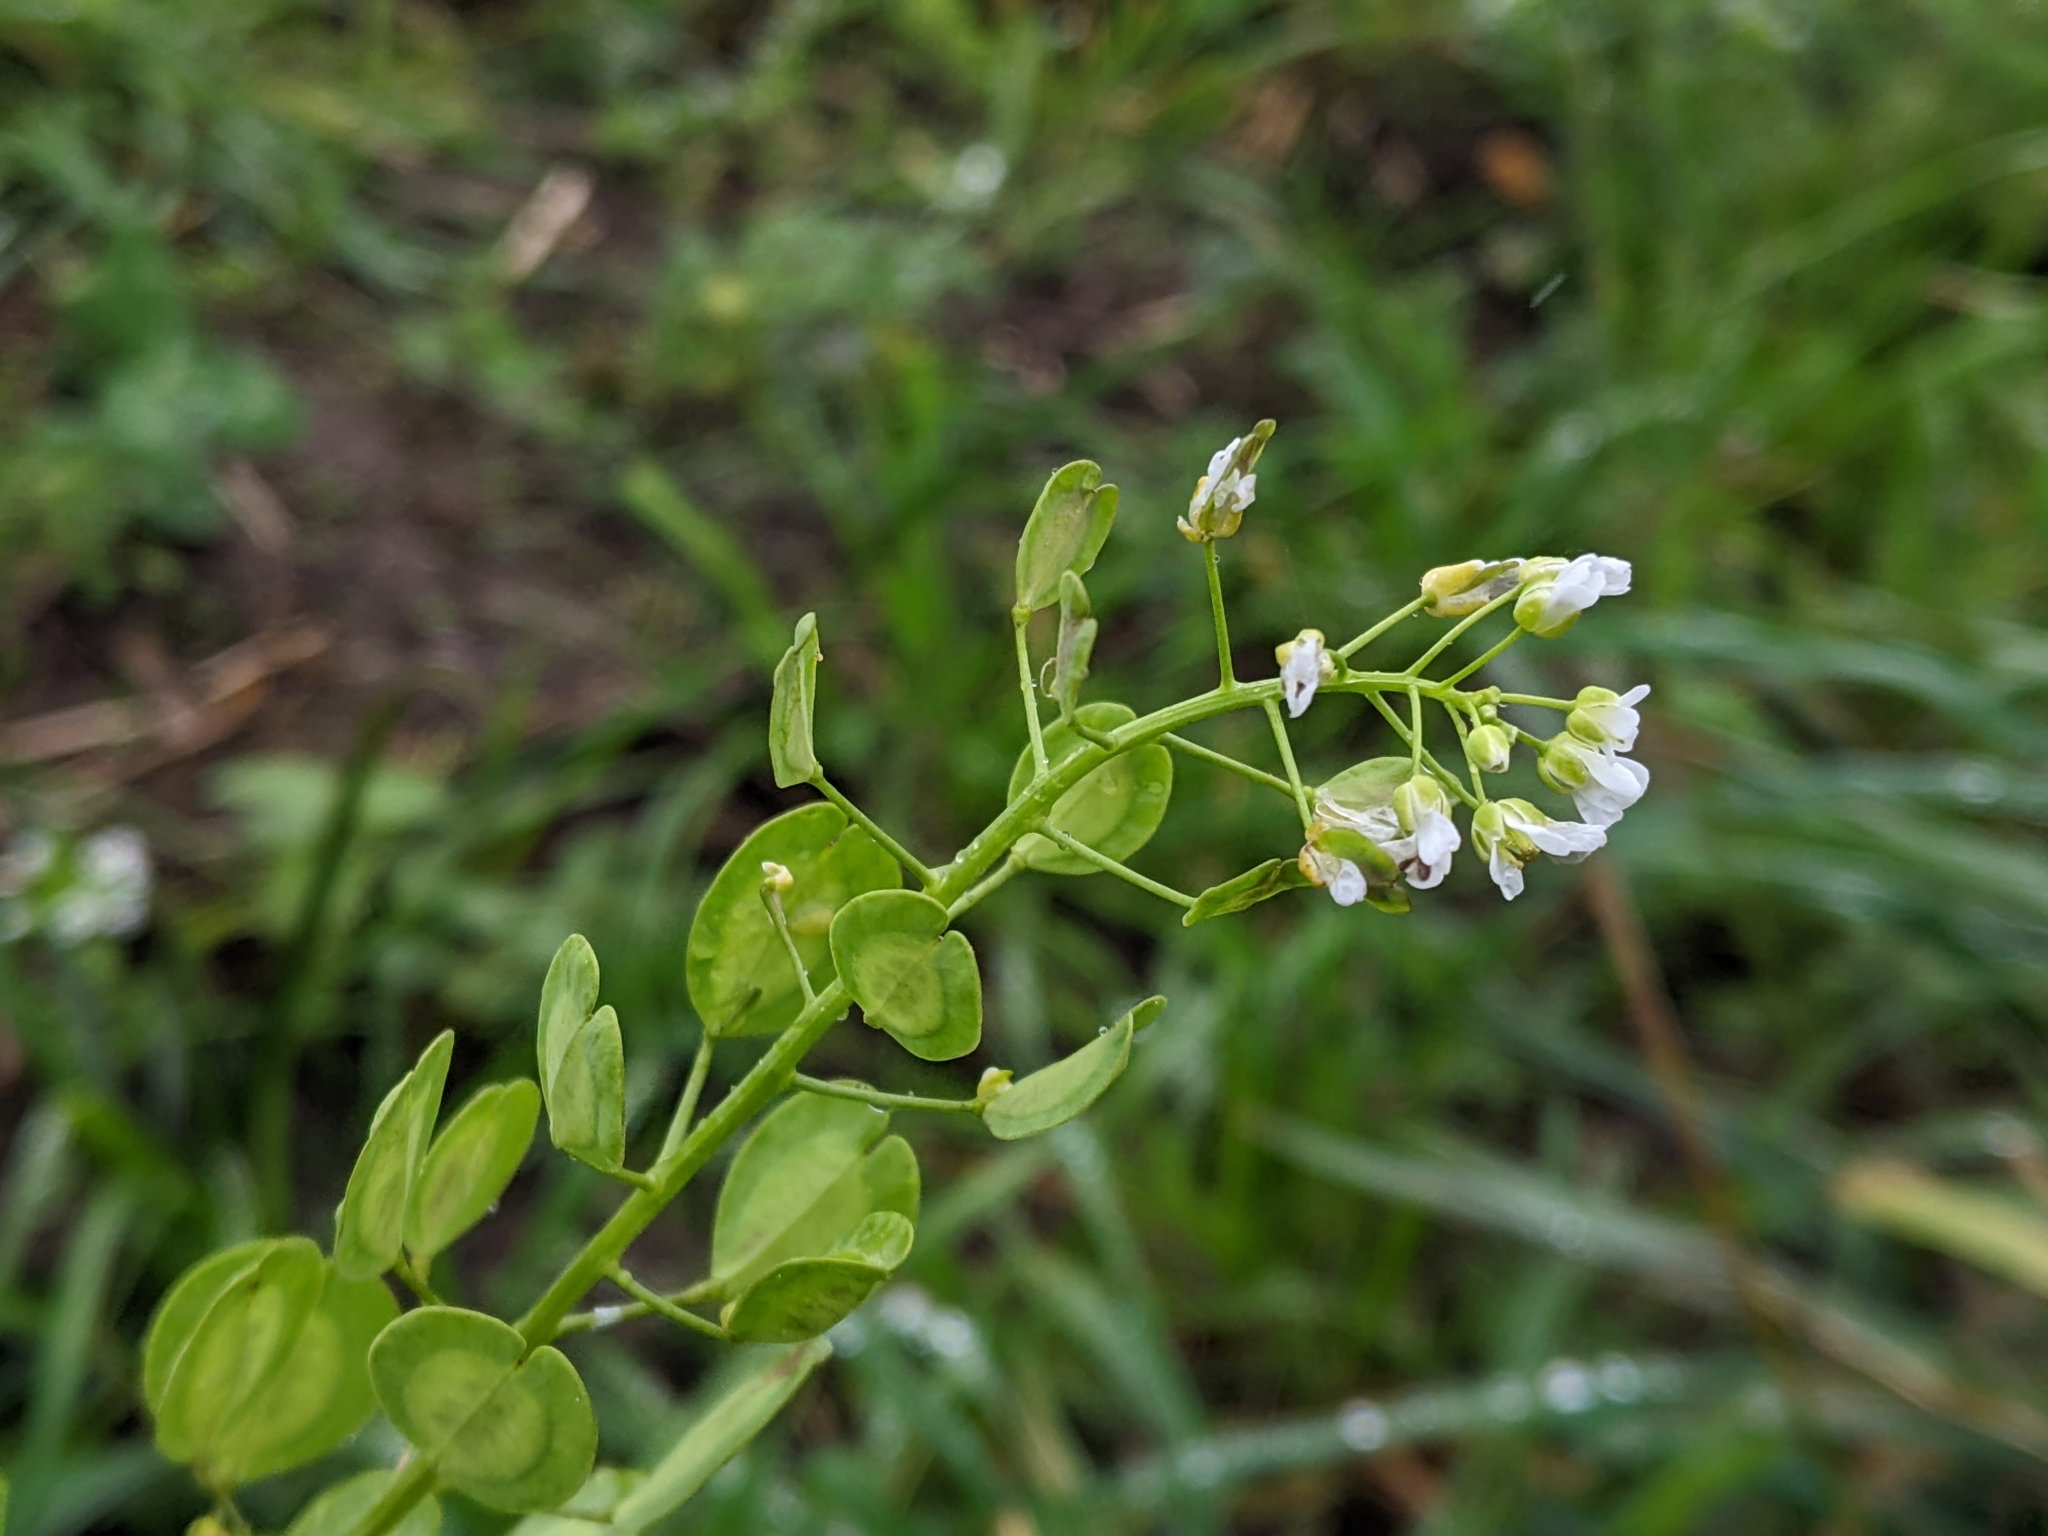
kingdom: Plantae
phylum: Tracheophyta
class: Magnoliopsida
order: Brassicales
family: Brassicaceae
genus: Thlaspi
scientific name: Thlaspi arvense
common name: Field pennycress
